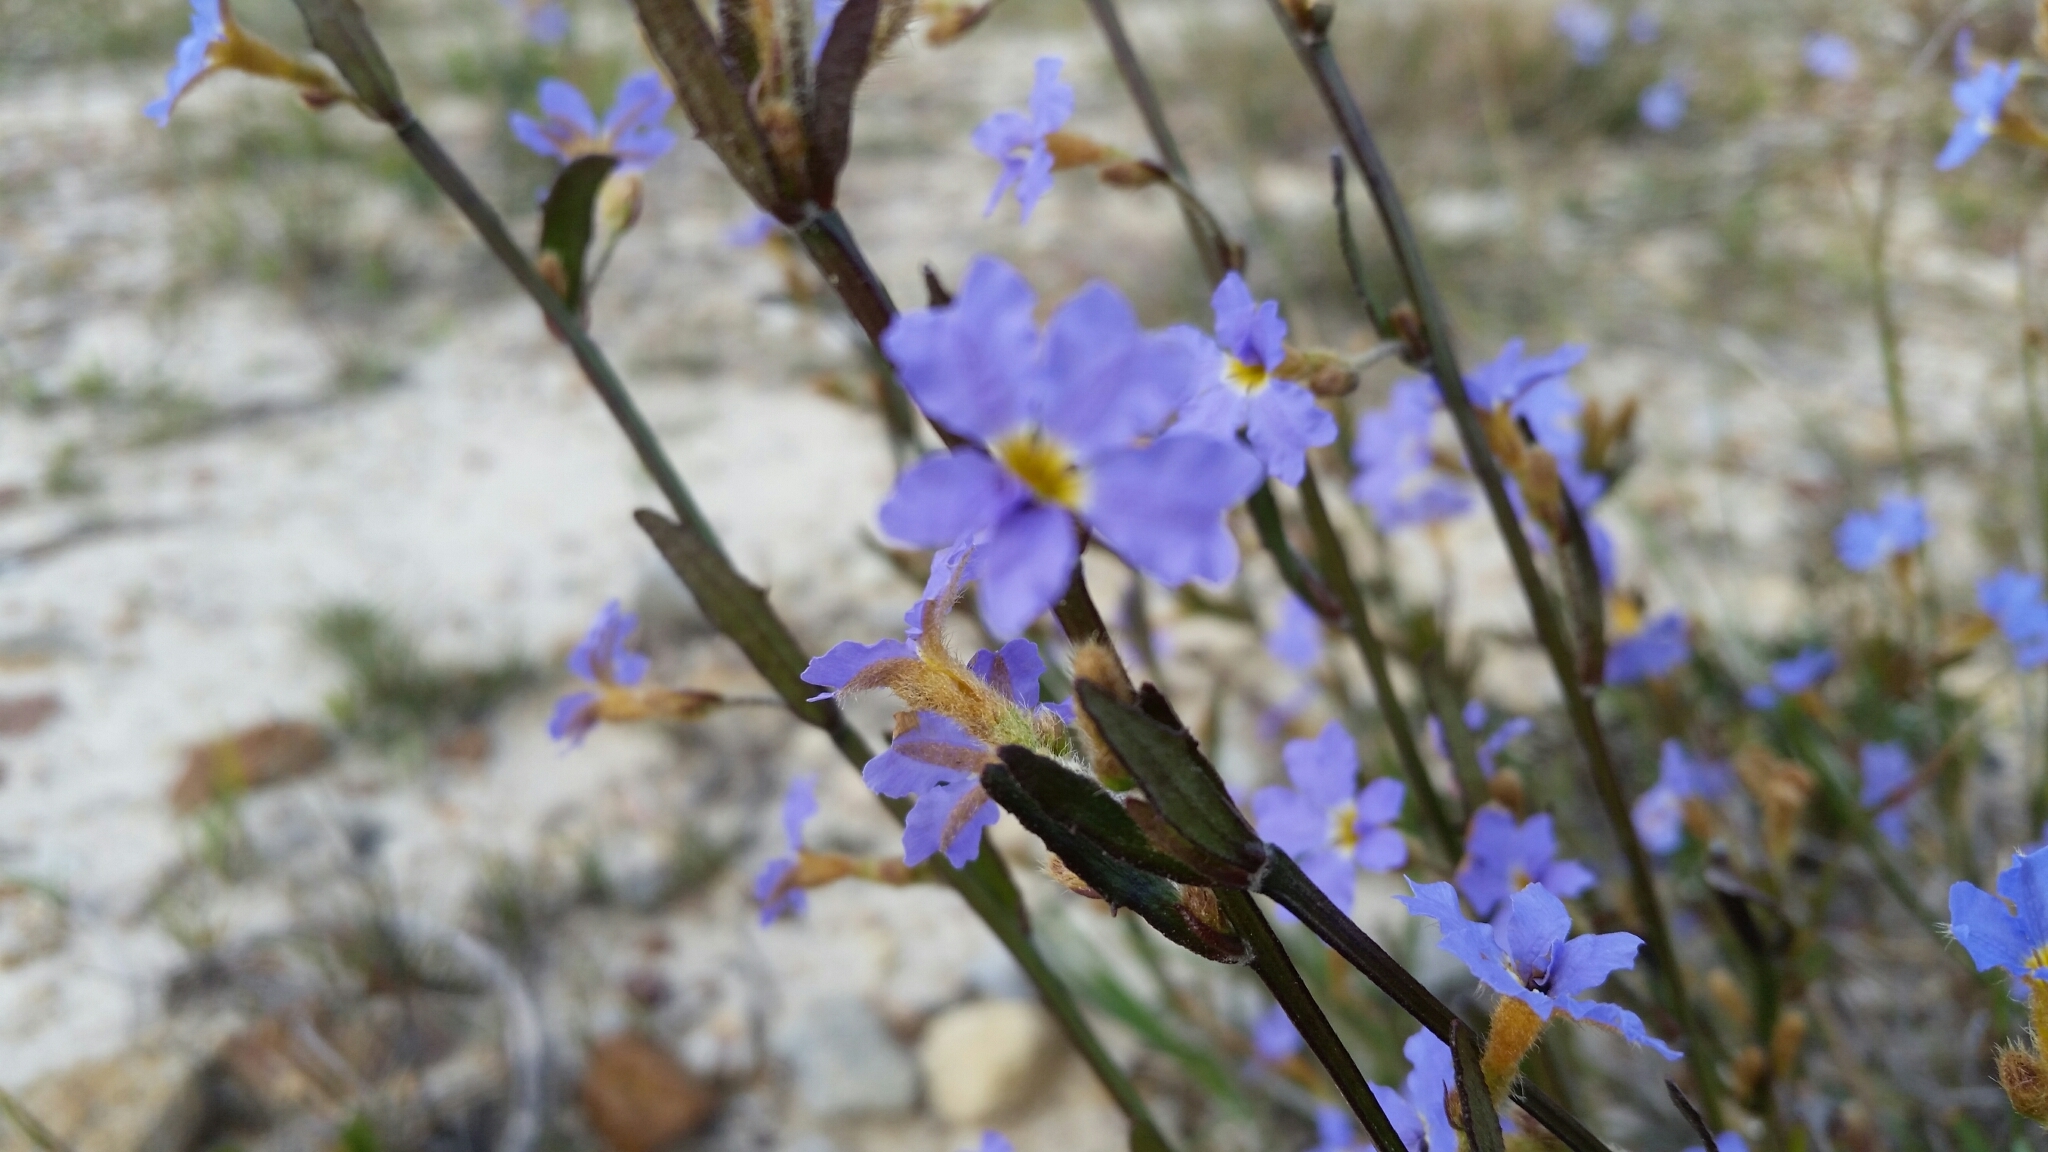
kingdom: Plantae
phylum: Tracheophyta
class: Magnoliopsida
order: Asterales
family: Goodeniaceae
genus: Dampiera
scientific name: Dampiera stricta
